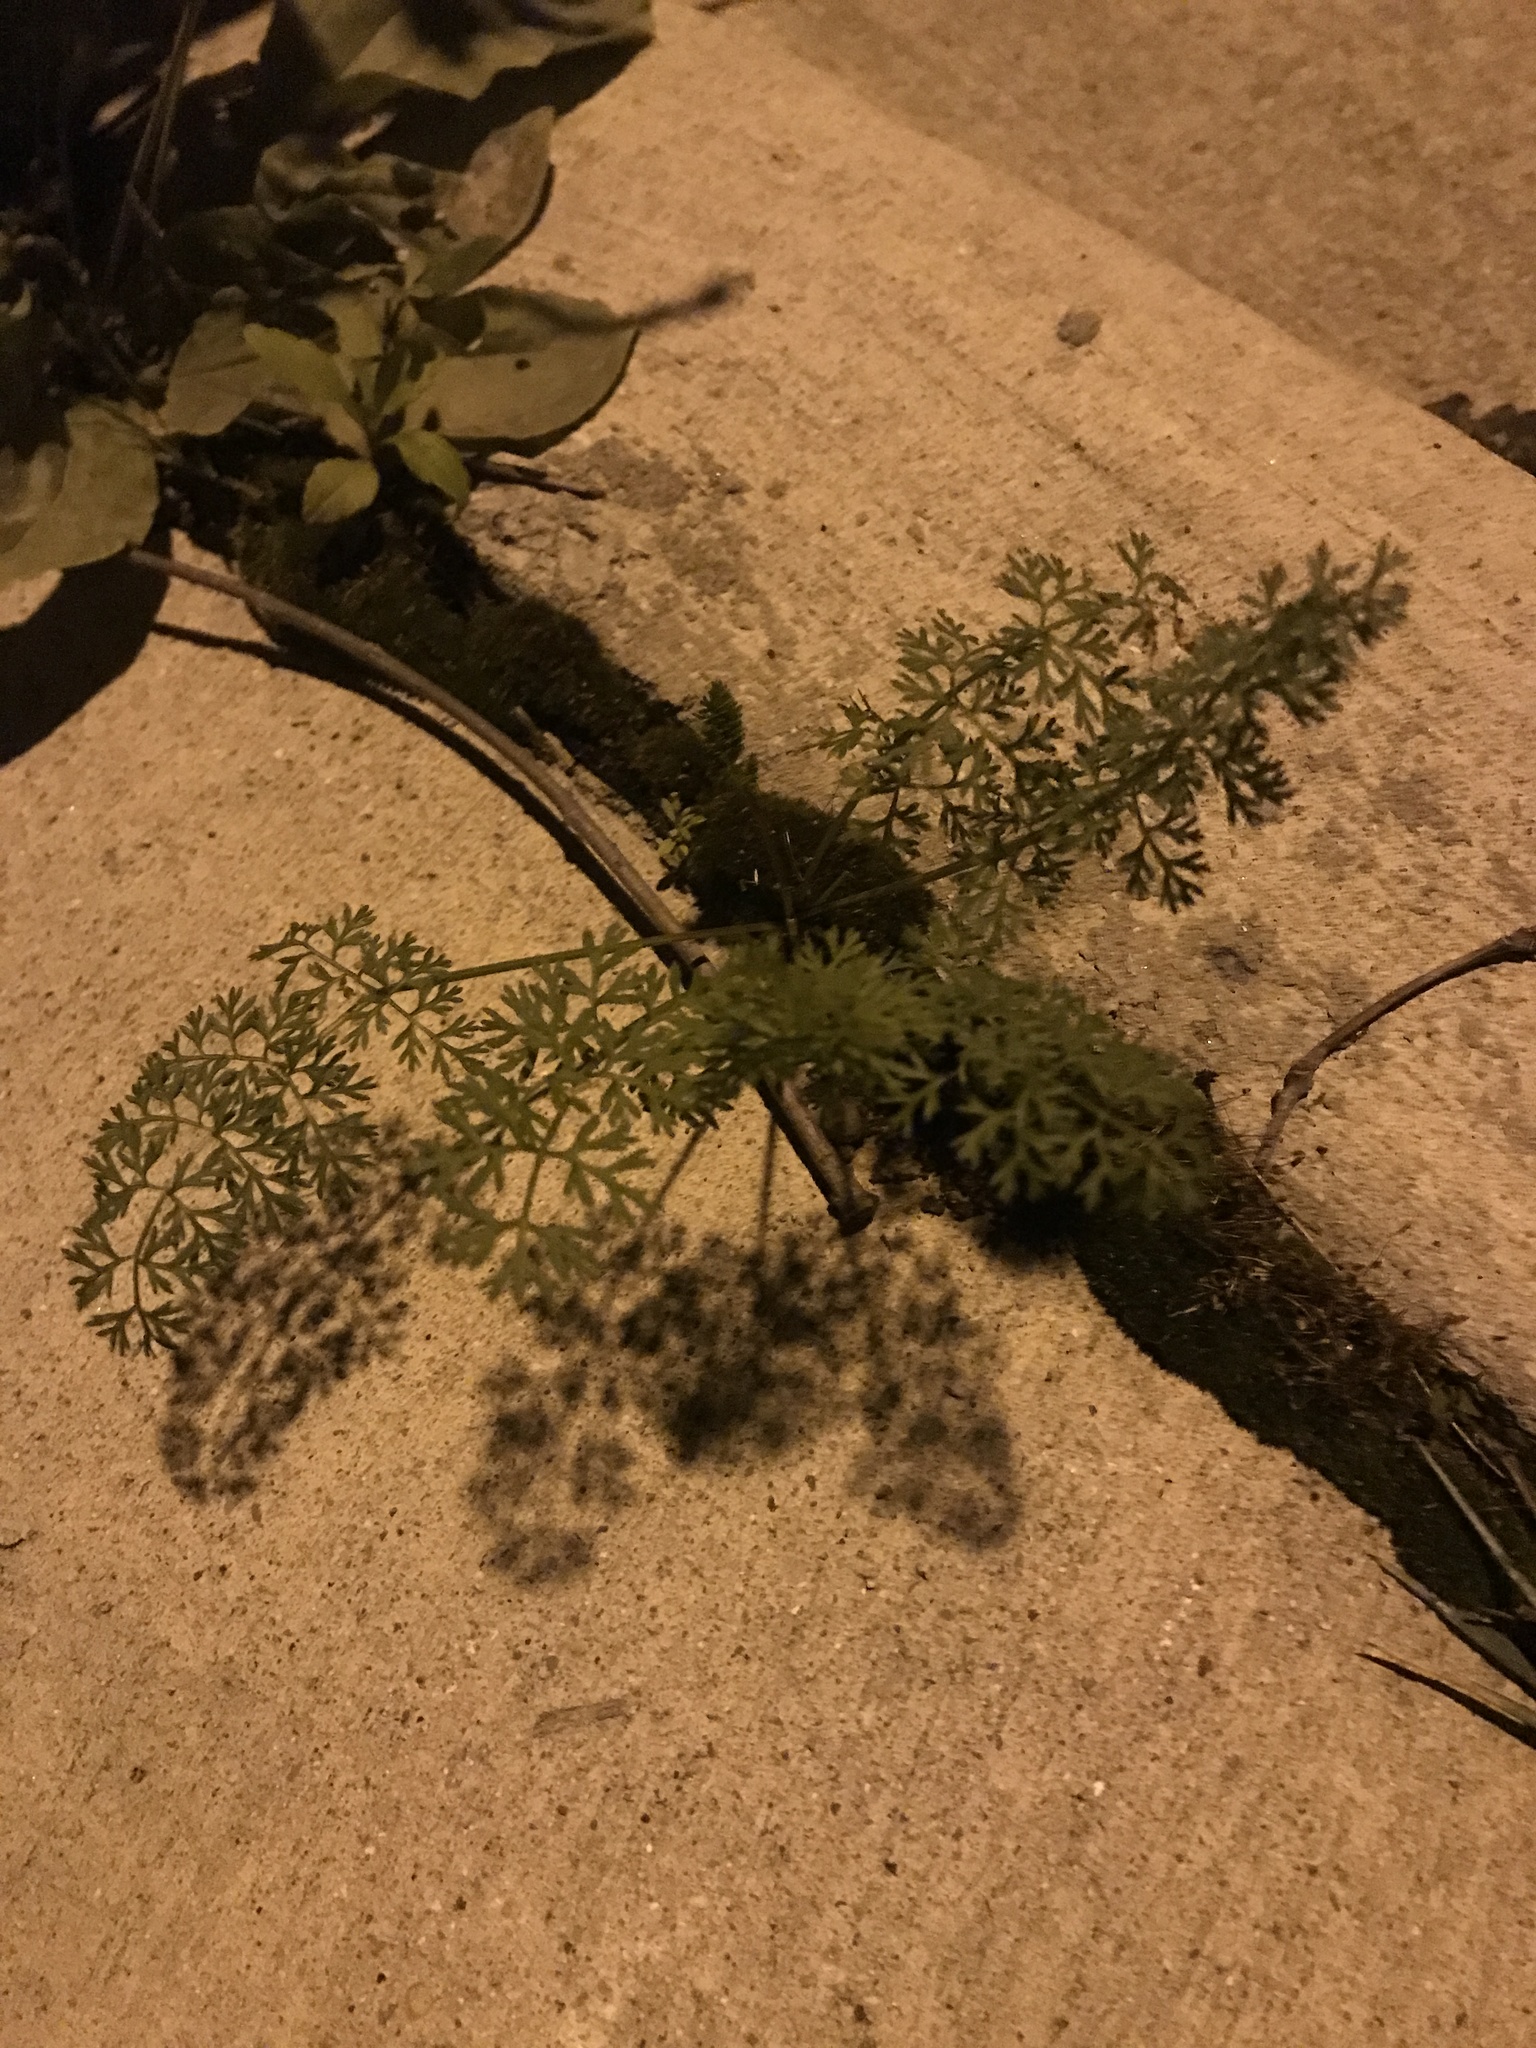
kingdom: Plantae
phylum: Tracheophyta
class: Magnoliopsida
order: Apiales
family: Apiaceae
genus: Daucus
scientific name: Daucus carota
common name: Wild carrot
